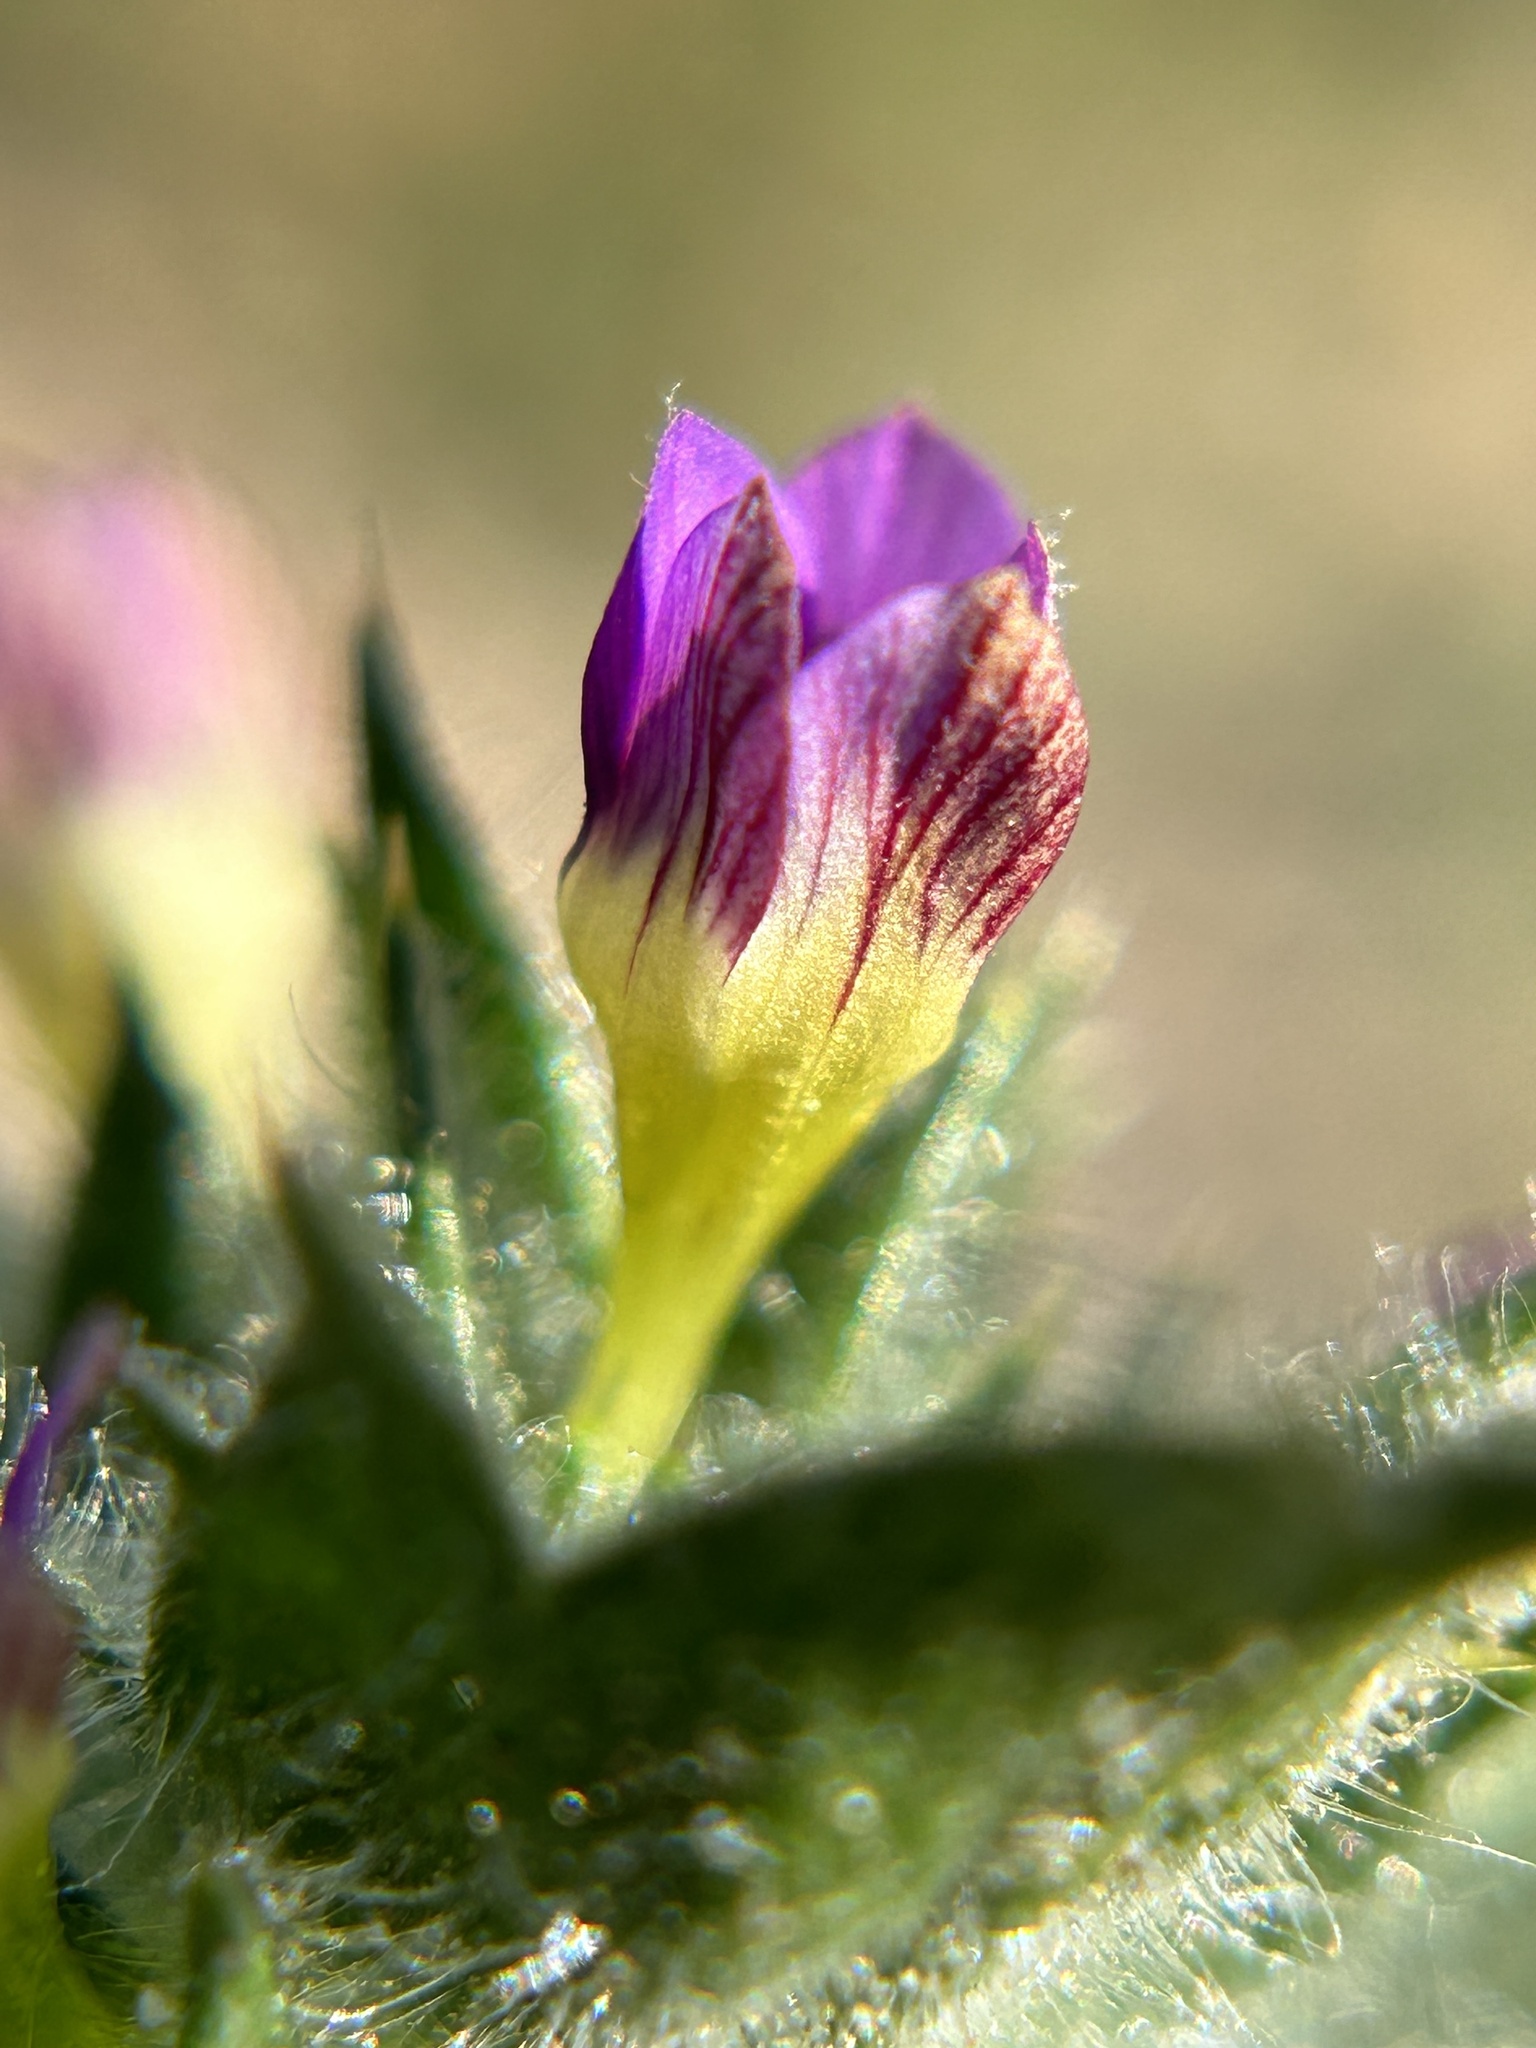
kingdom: Plantae
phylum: Tracheophyta
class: Magnoliopsida
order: Ericales
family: Polemoniaceae
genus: Navarretia
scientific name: Navarretia atractyloides
